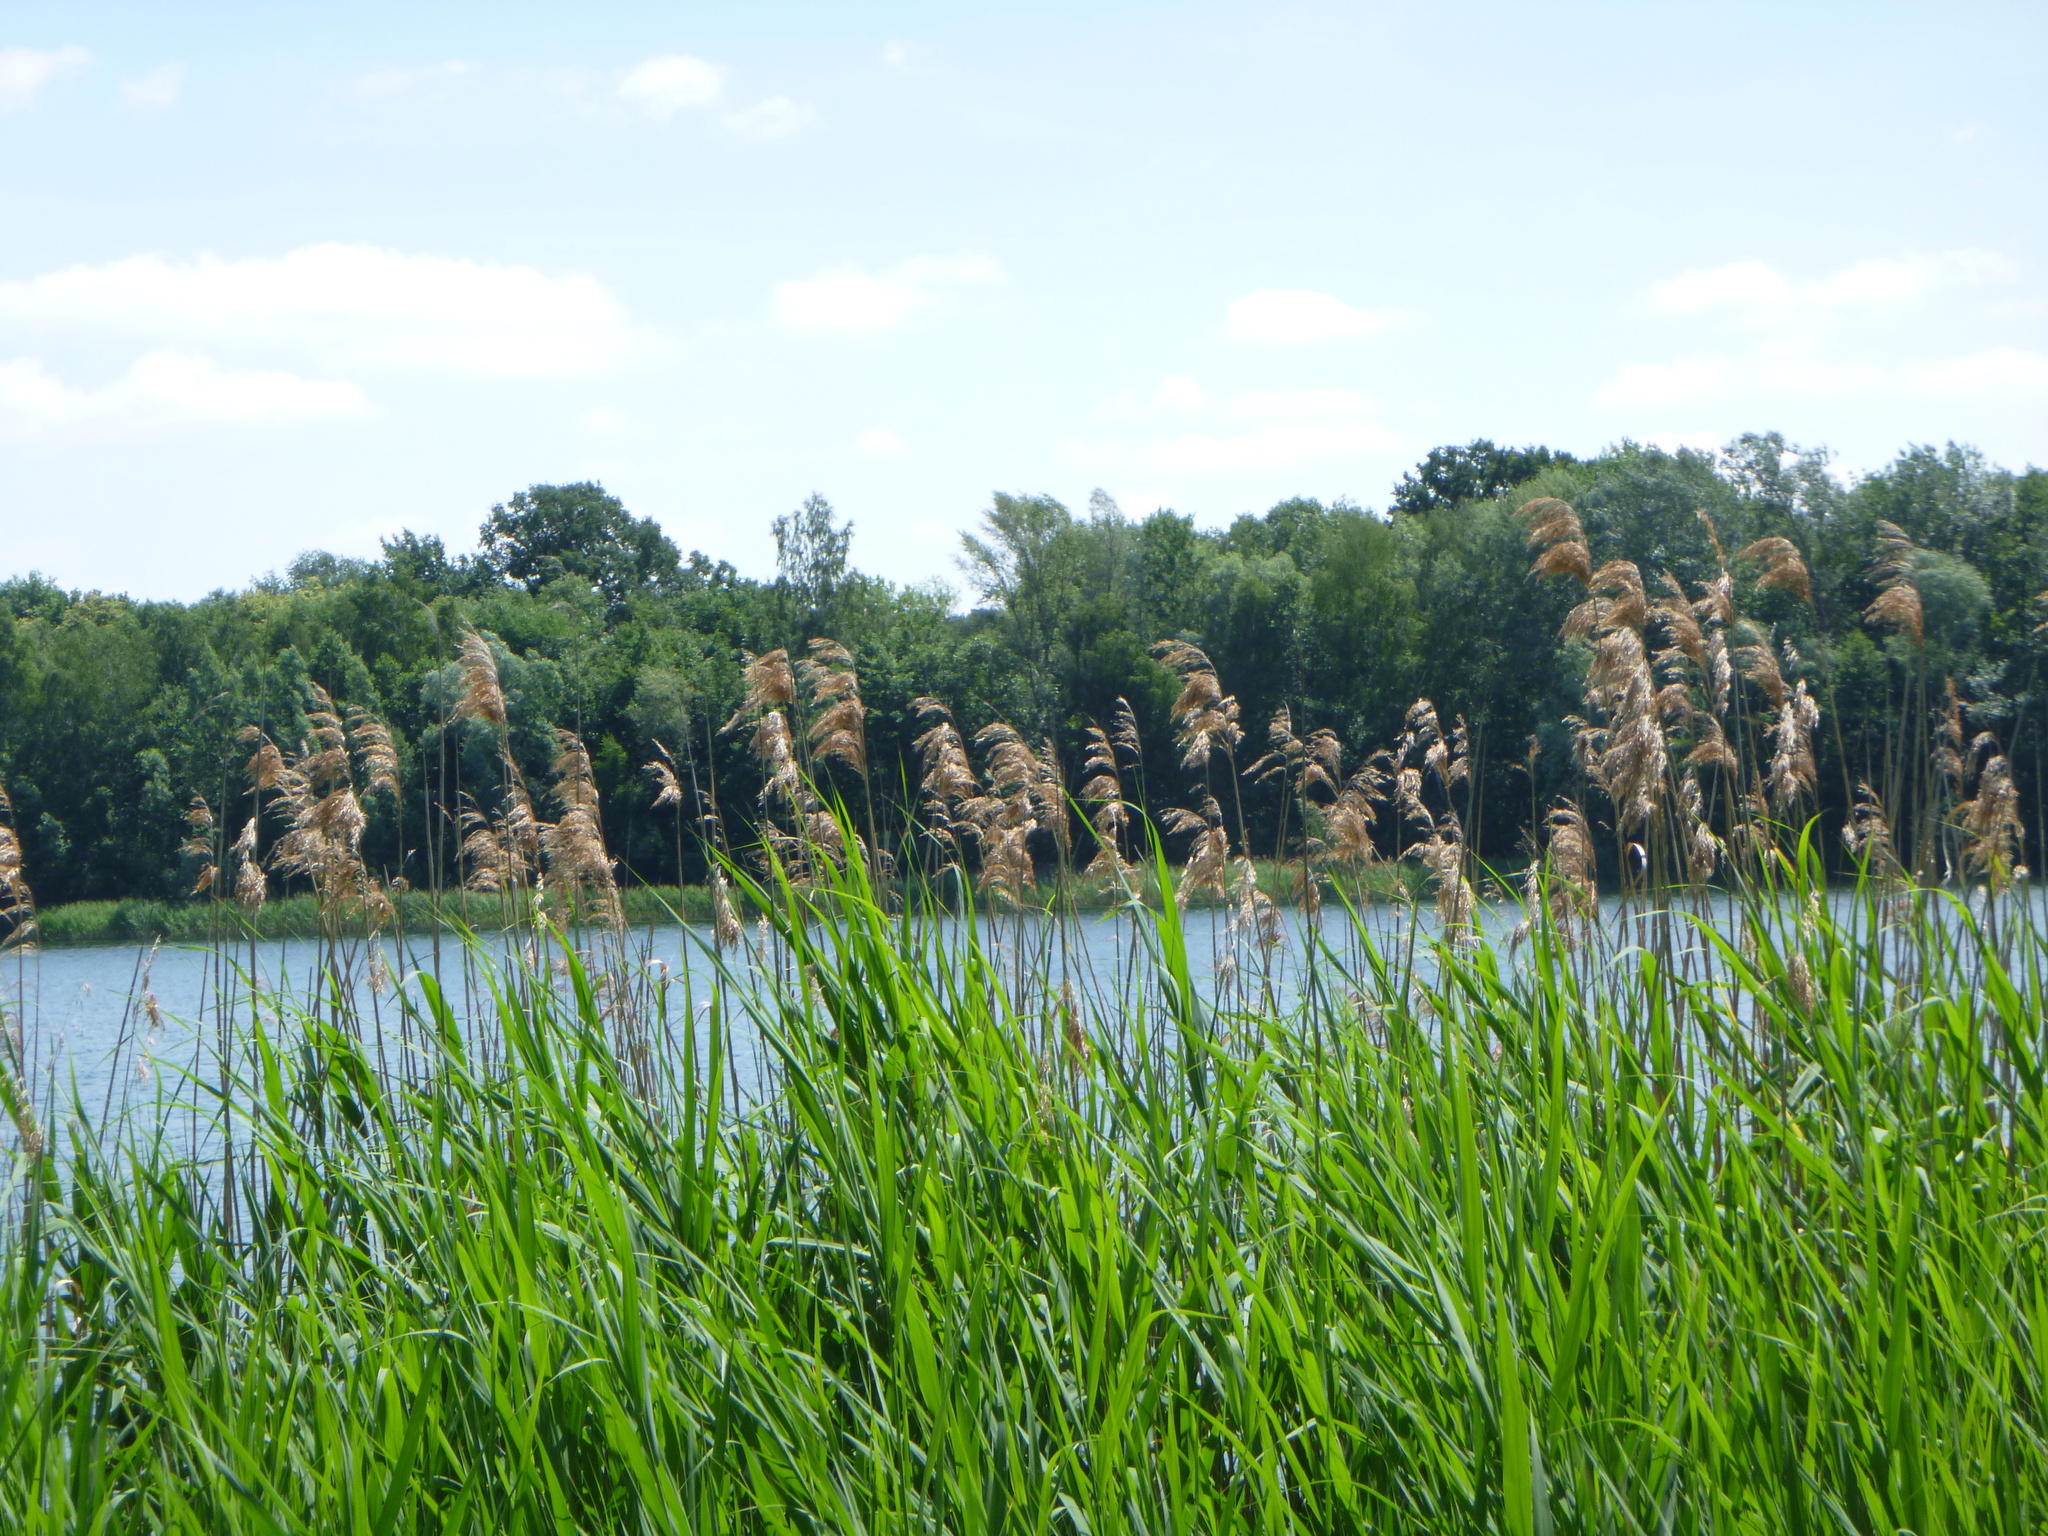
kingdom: Plantae
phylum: Tracheophyta
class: Liliopsida
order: Poales
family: Poaceae
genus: Phragmites
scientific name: Phragmites australis
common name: Common reed
